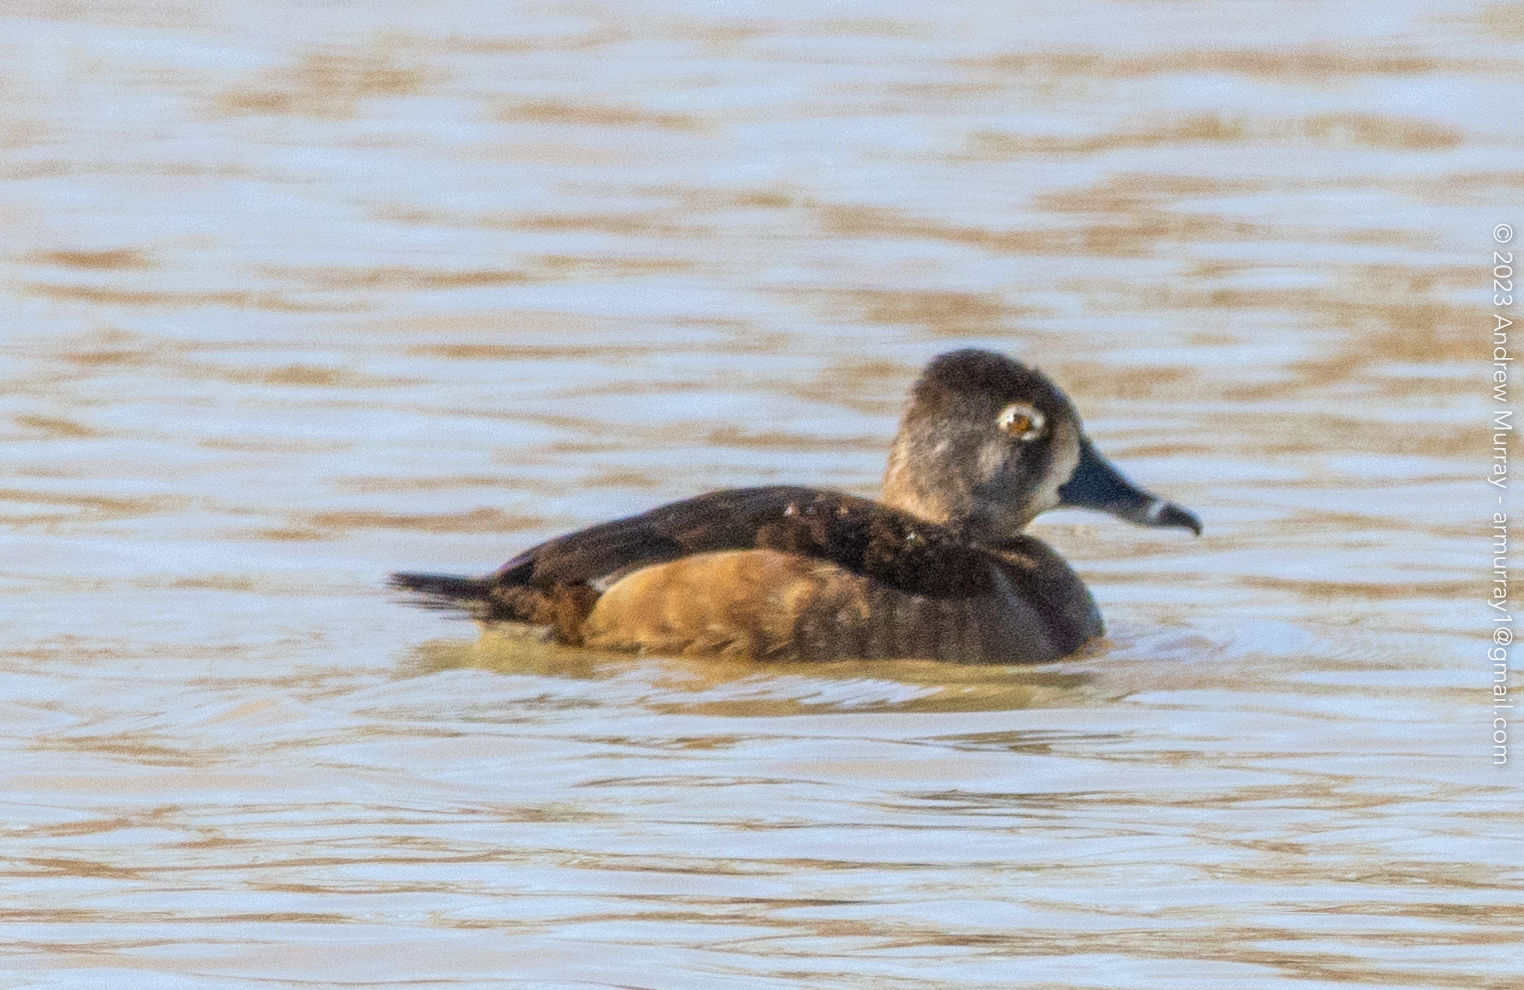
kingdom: Animalia
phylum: Chordata
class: Aves
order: Anseriformes
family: Anatidae
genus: Aythya
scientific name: Aythya collaris
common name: Ring-necked duck
